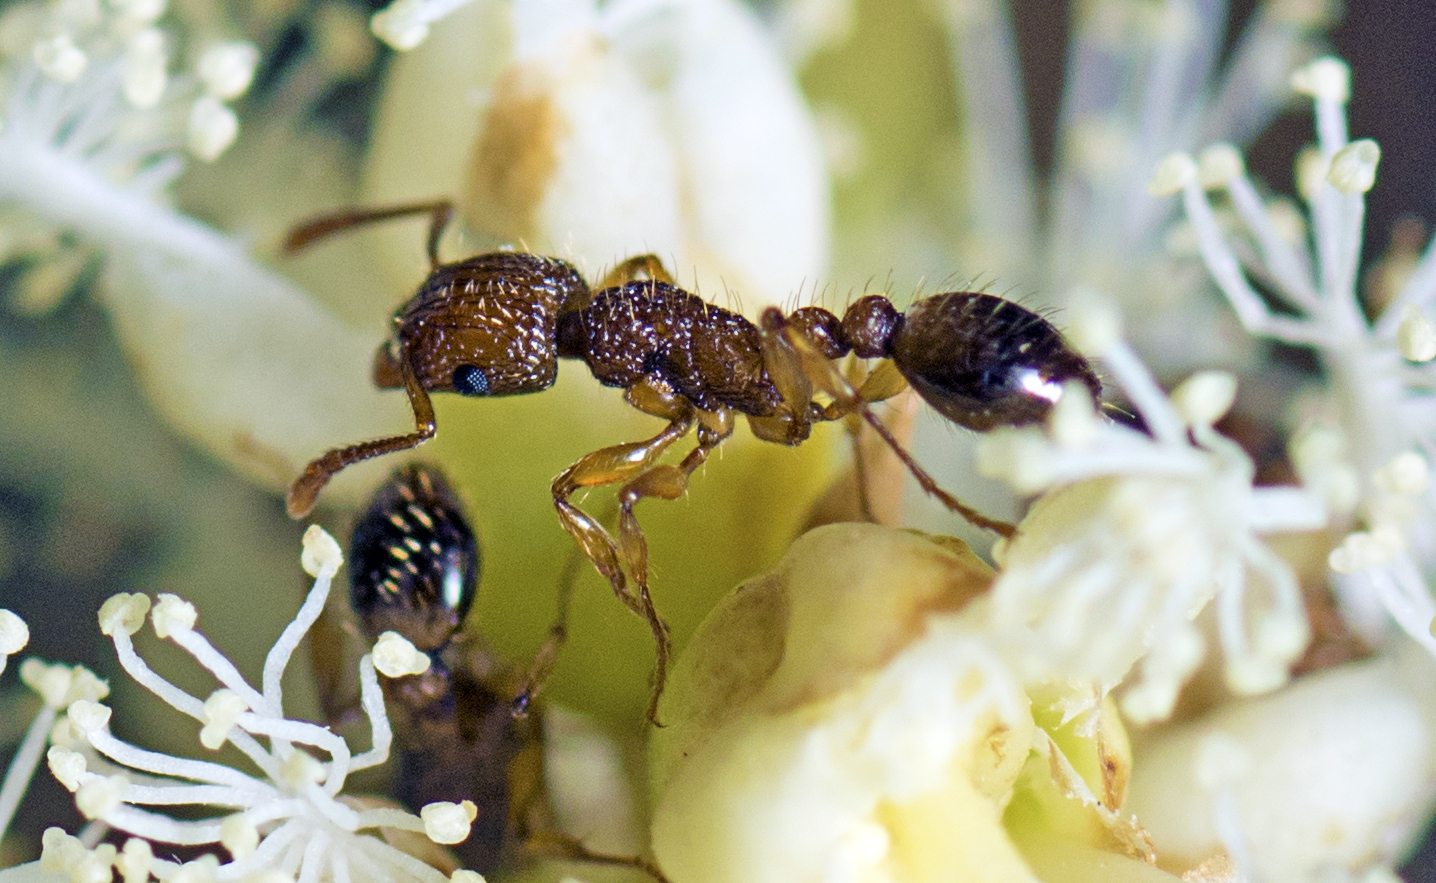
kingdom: Animalia
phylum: Arthropoda
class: Insecta
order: Hymenoptera
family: Formicidae
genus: Tetramorium
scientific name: Tetramorium bicarinatum
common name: Guinea ant
